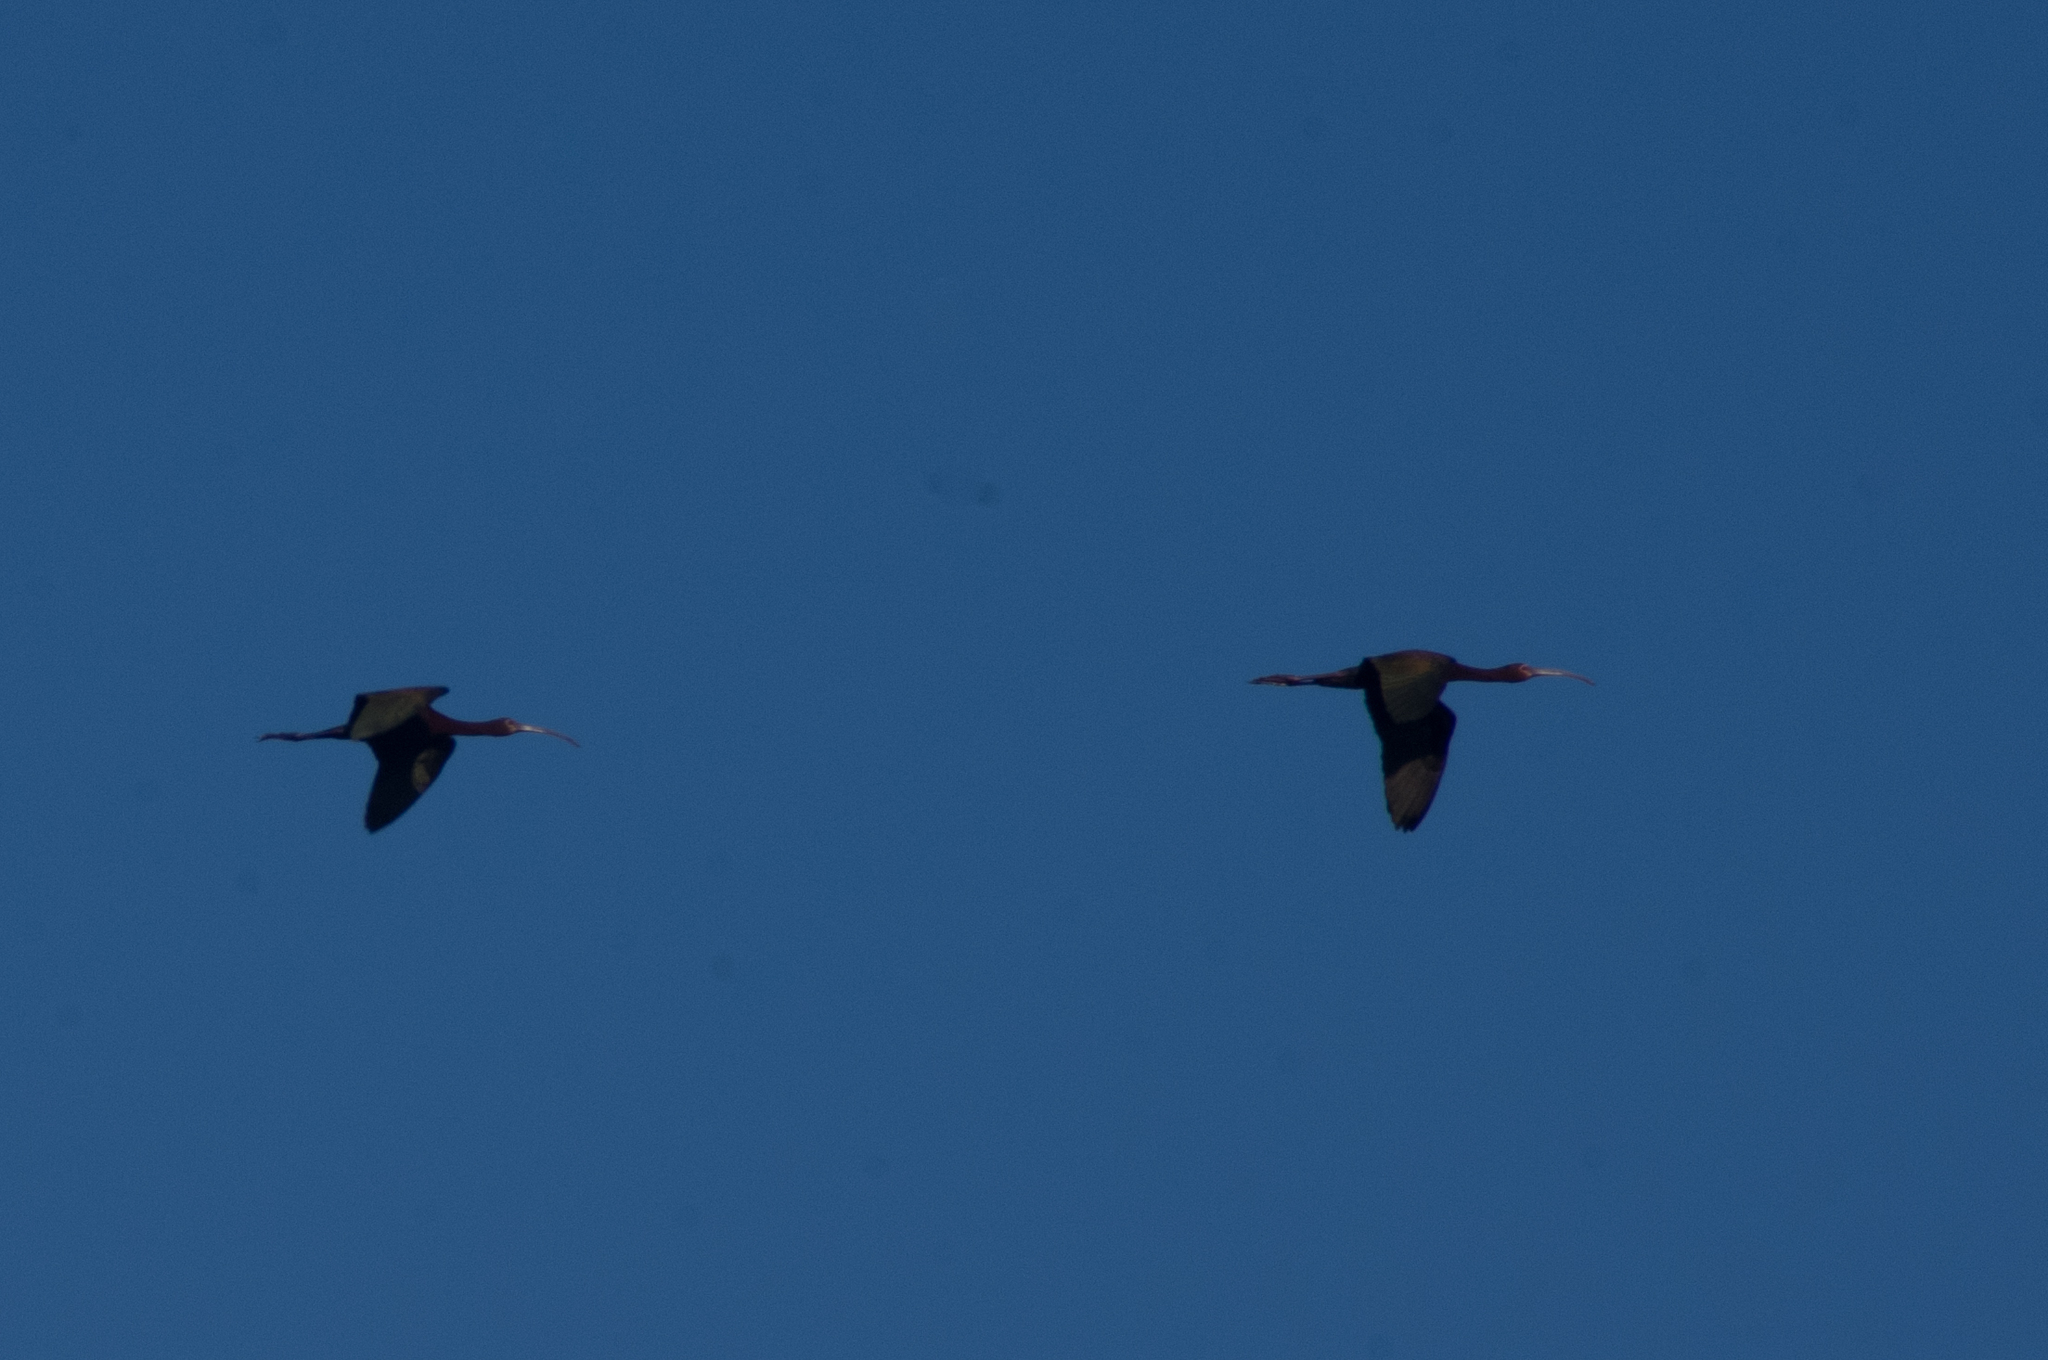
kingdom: Animalia
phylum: Chordata
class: Aves
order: Pelecaniformes
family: Threskiornithidae
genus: Plegadis
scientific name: Plegadis chihi
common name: White-faced ibis
